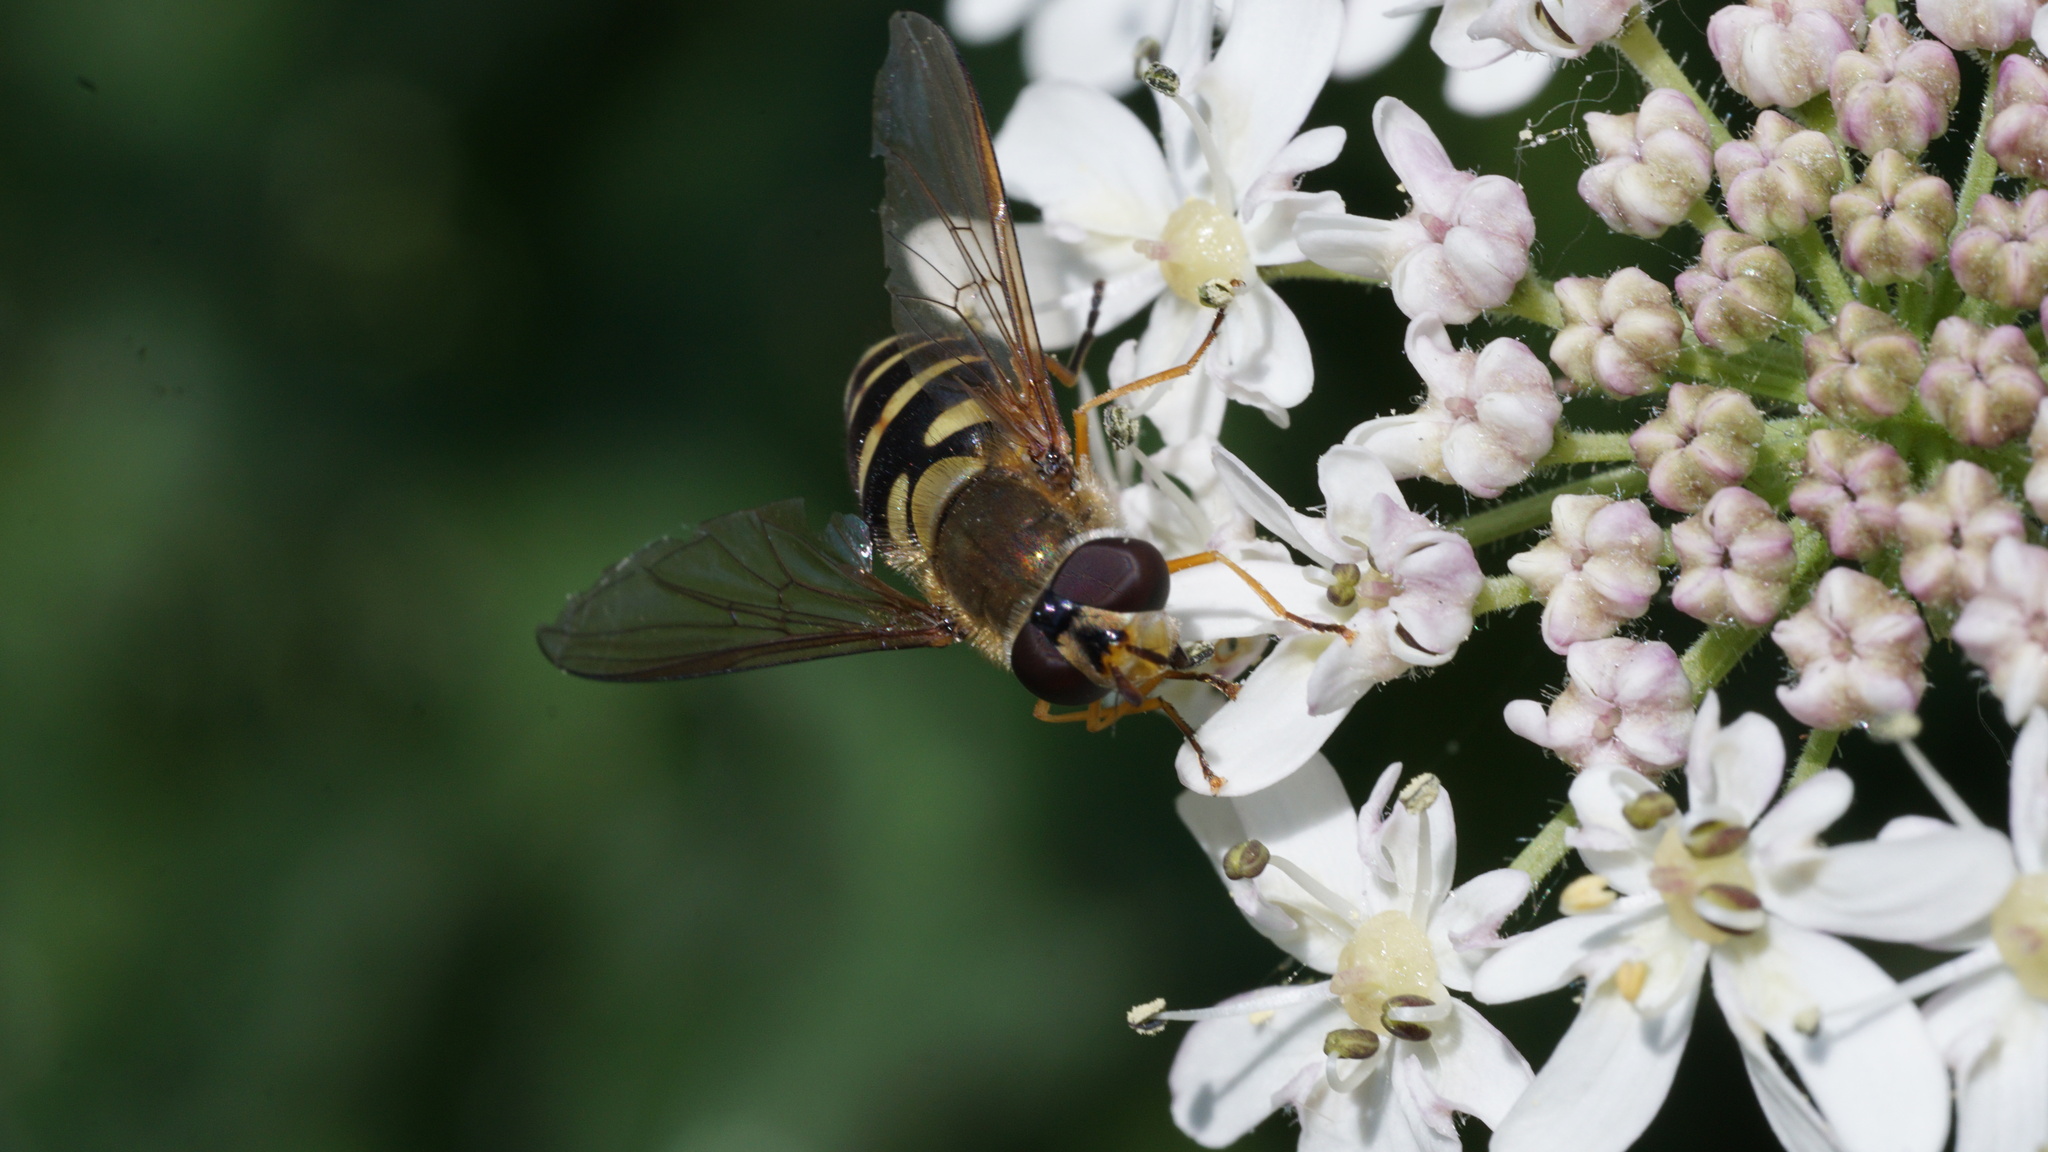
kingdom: Animalia
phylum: Arthropoda
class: Insecta
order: Diptera
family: Syrphidae
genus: Syrphus
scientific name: Syrphus ribesii
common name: Common flower fly
